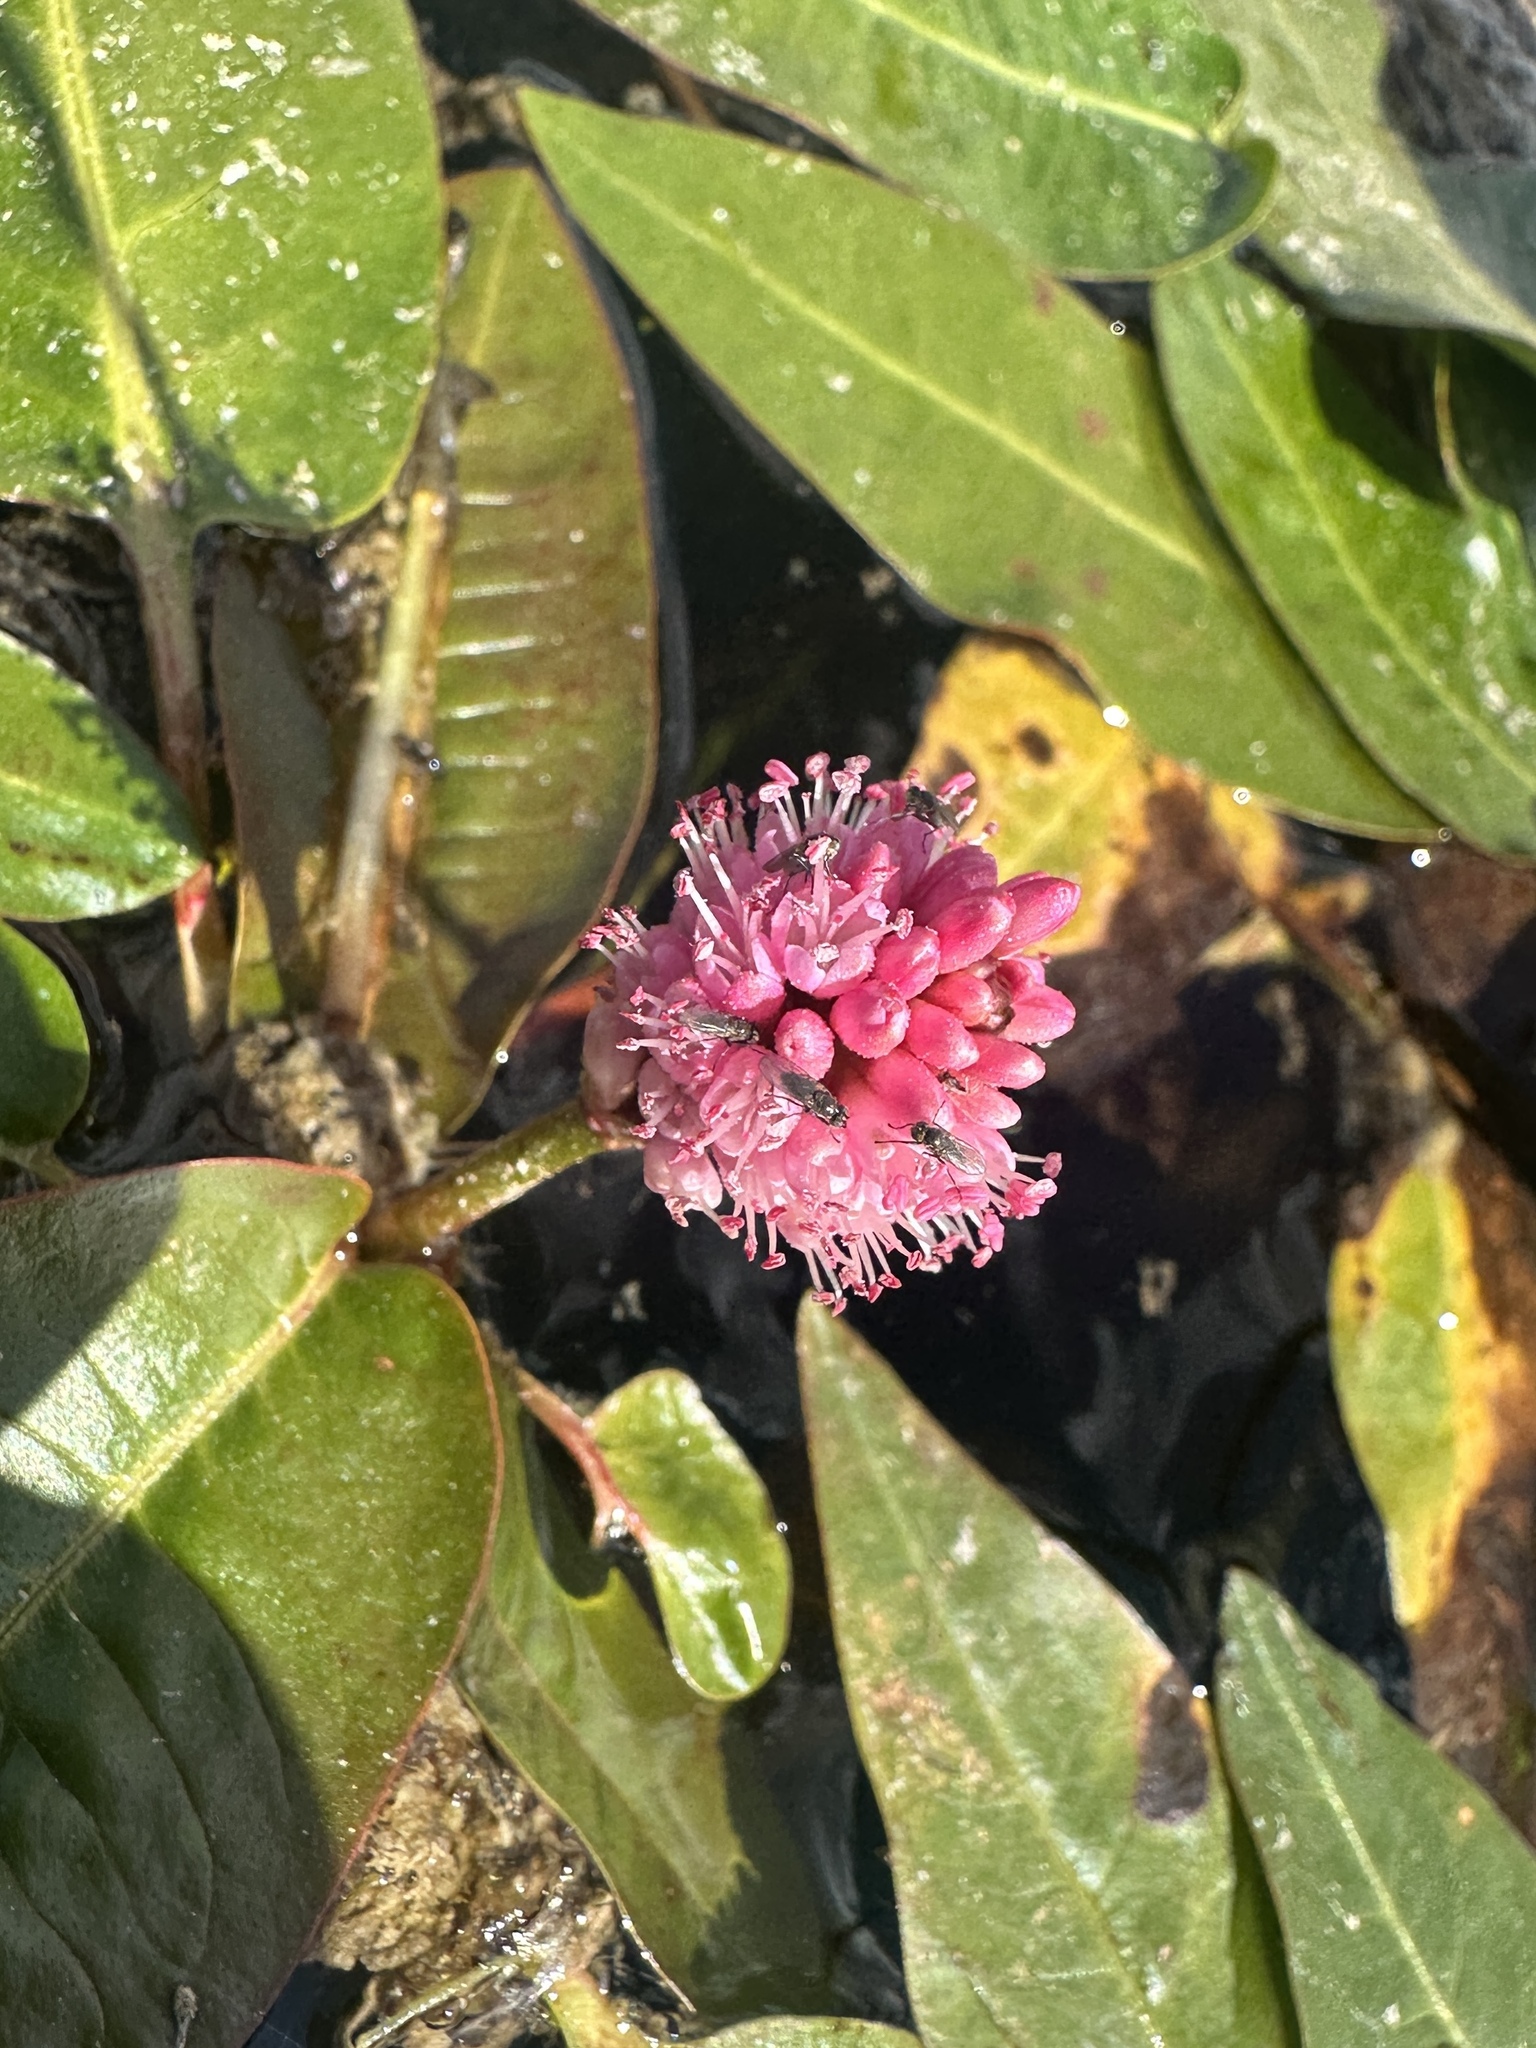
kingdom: Plantae
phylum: Tracheophyta
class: Magnoliopsida
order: Caryophyllales
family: Polygonaceae
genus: Persicaria
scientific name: Persicaria amphibia
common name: Amphibious bistort
